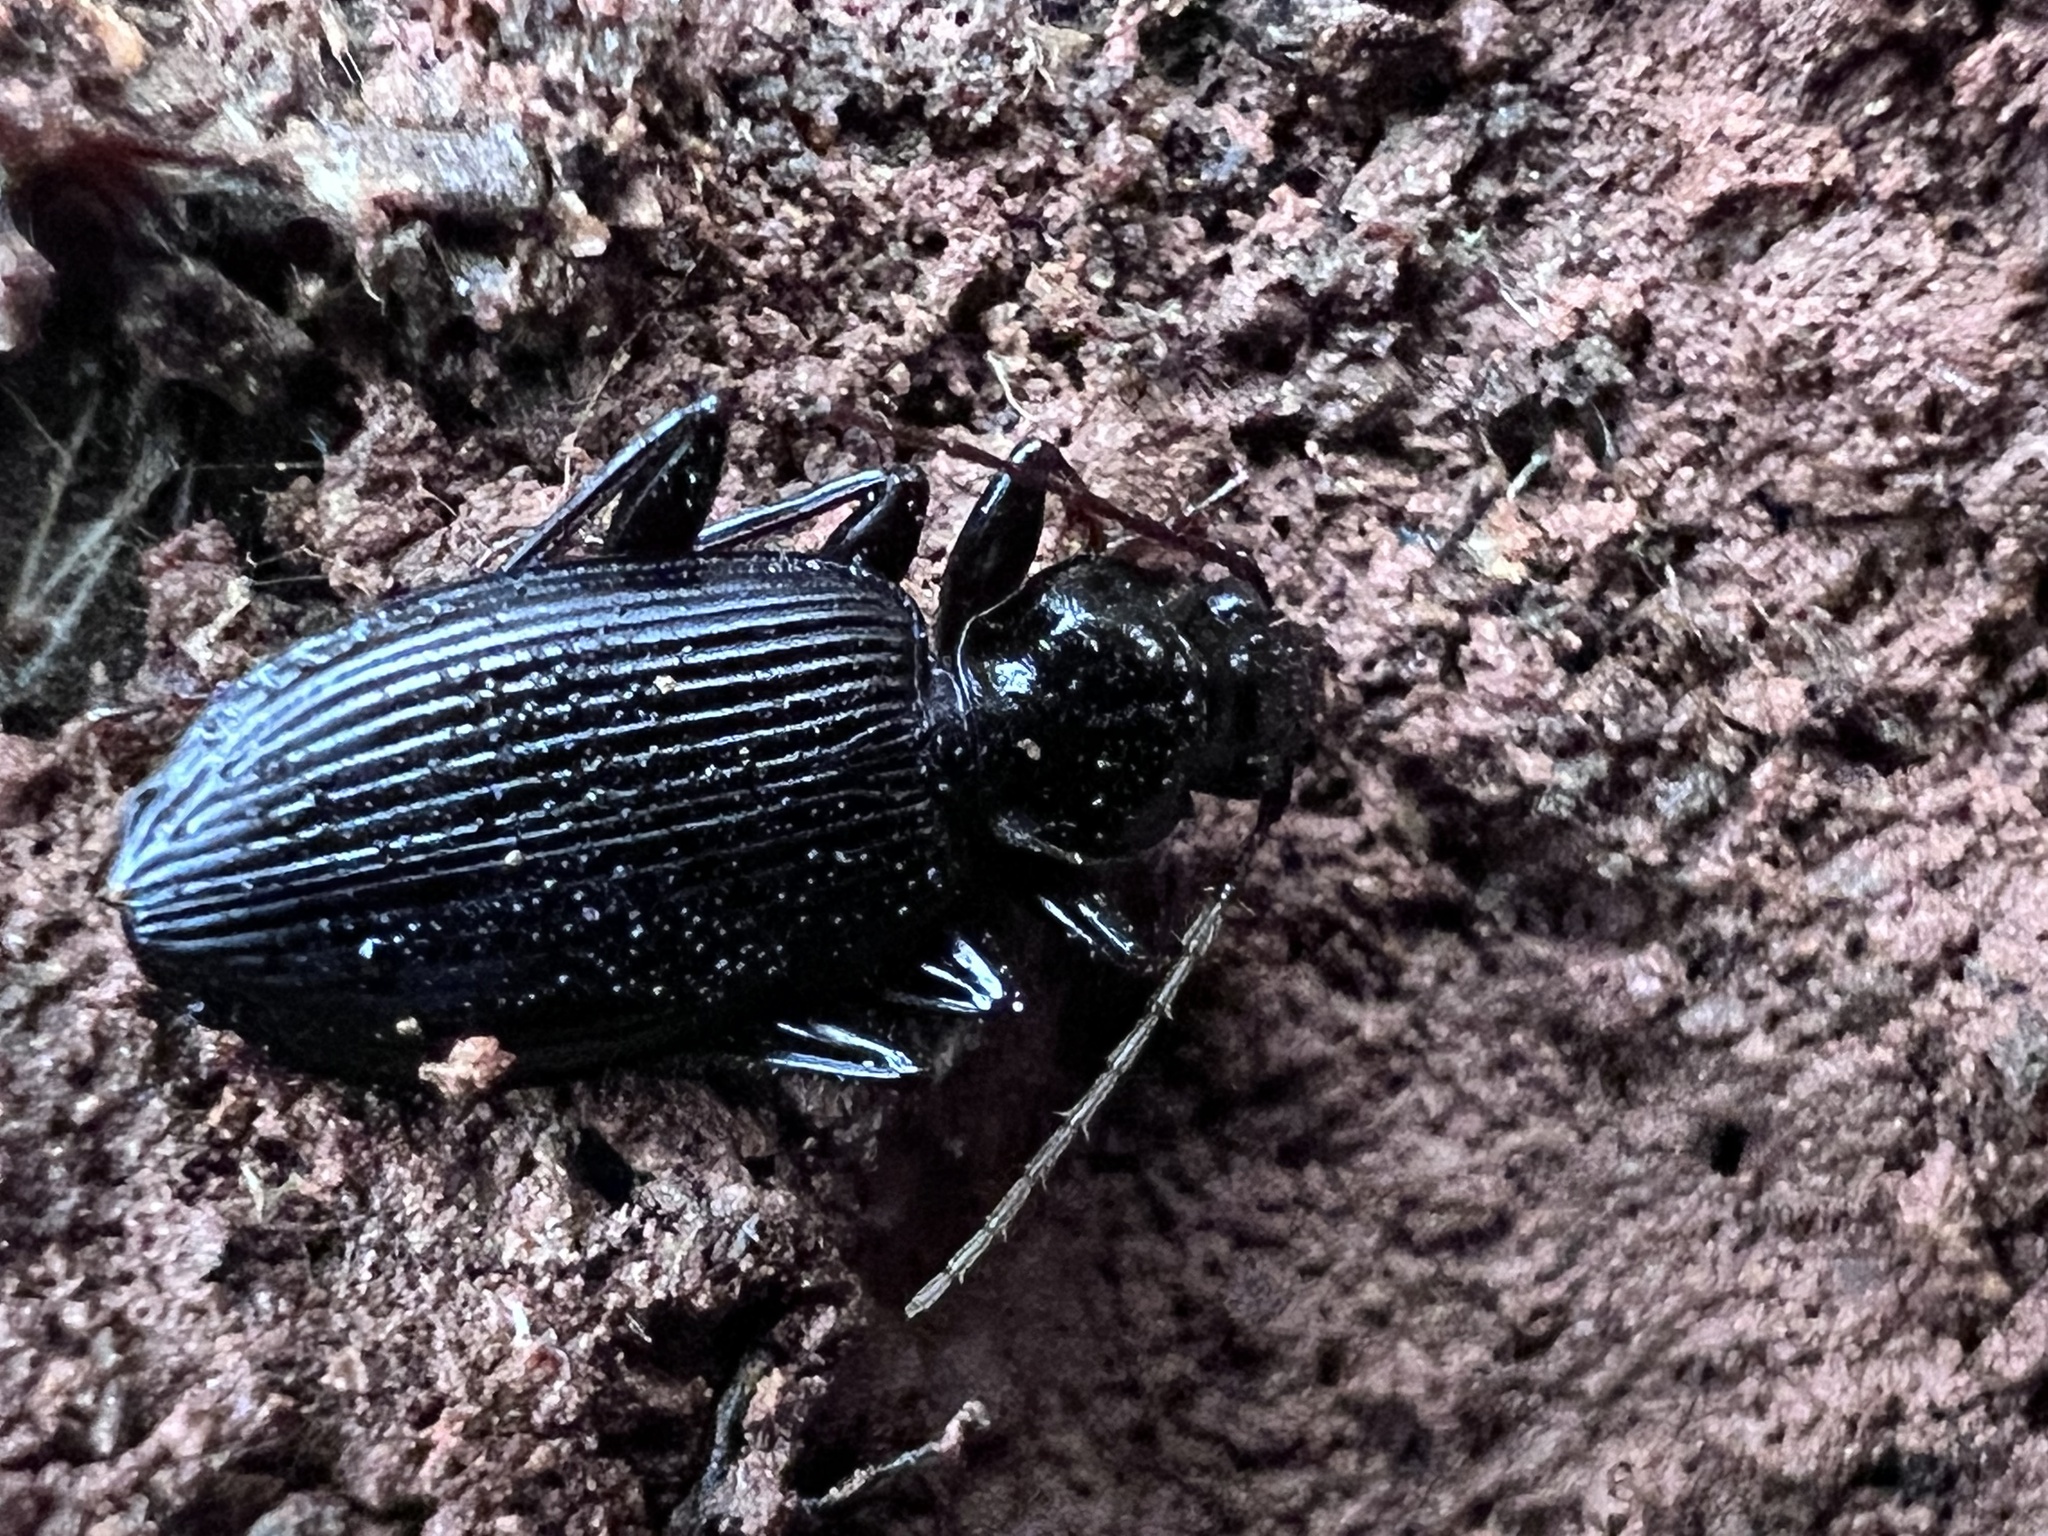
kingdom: Animalia
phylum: Arthropoda
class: Insecta
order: Coleoptera
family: Carabidae
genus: Platynus
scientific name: Platynus decentis
